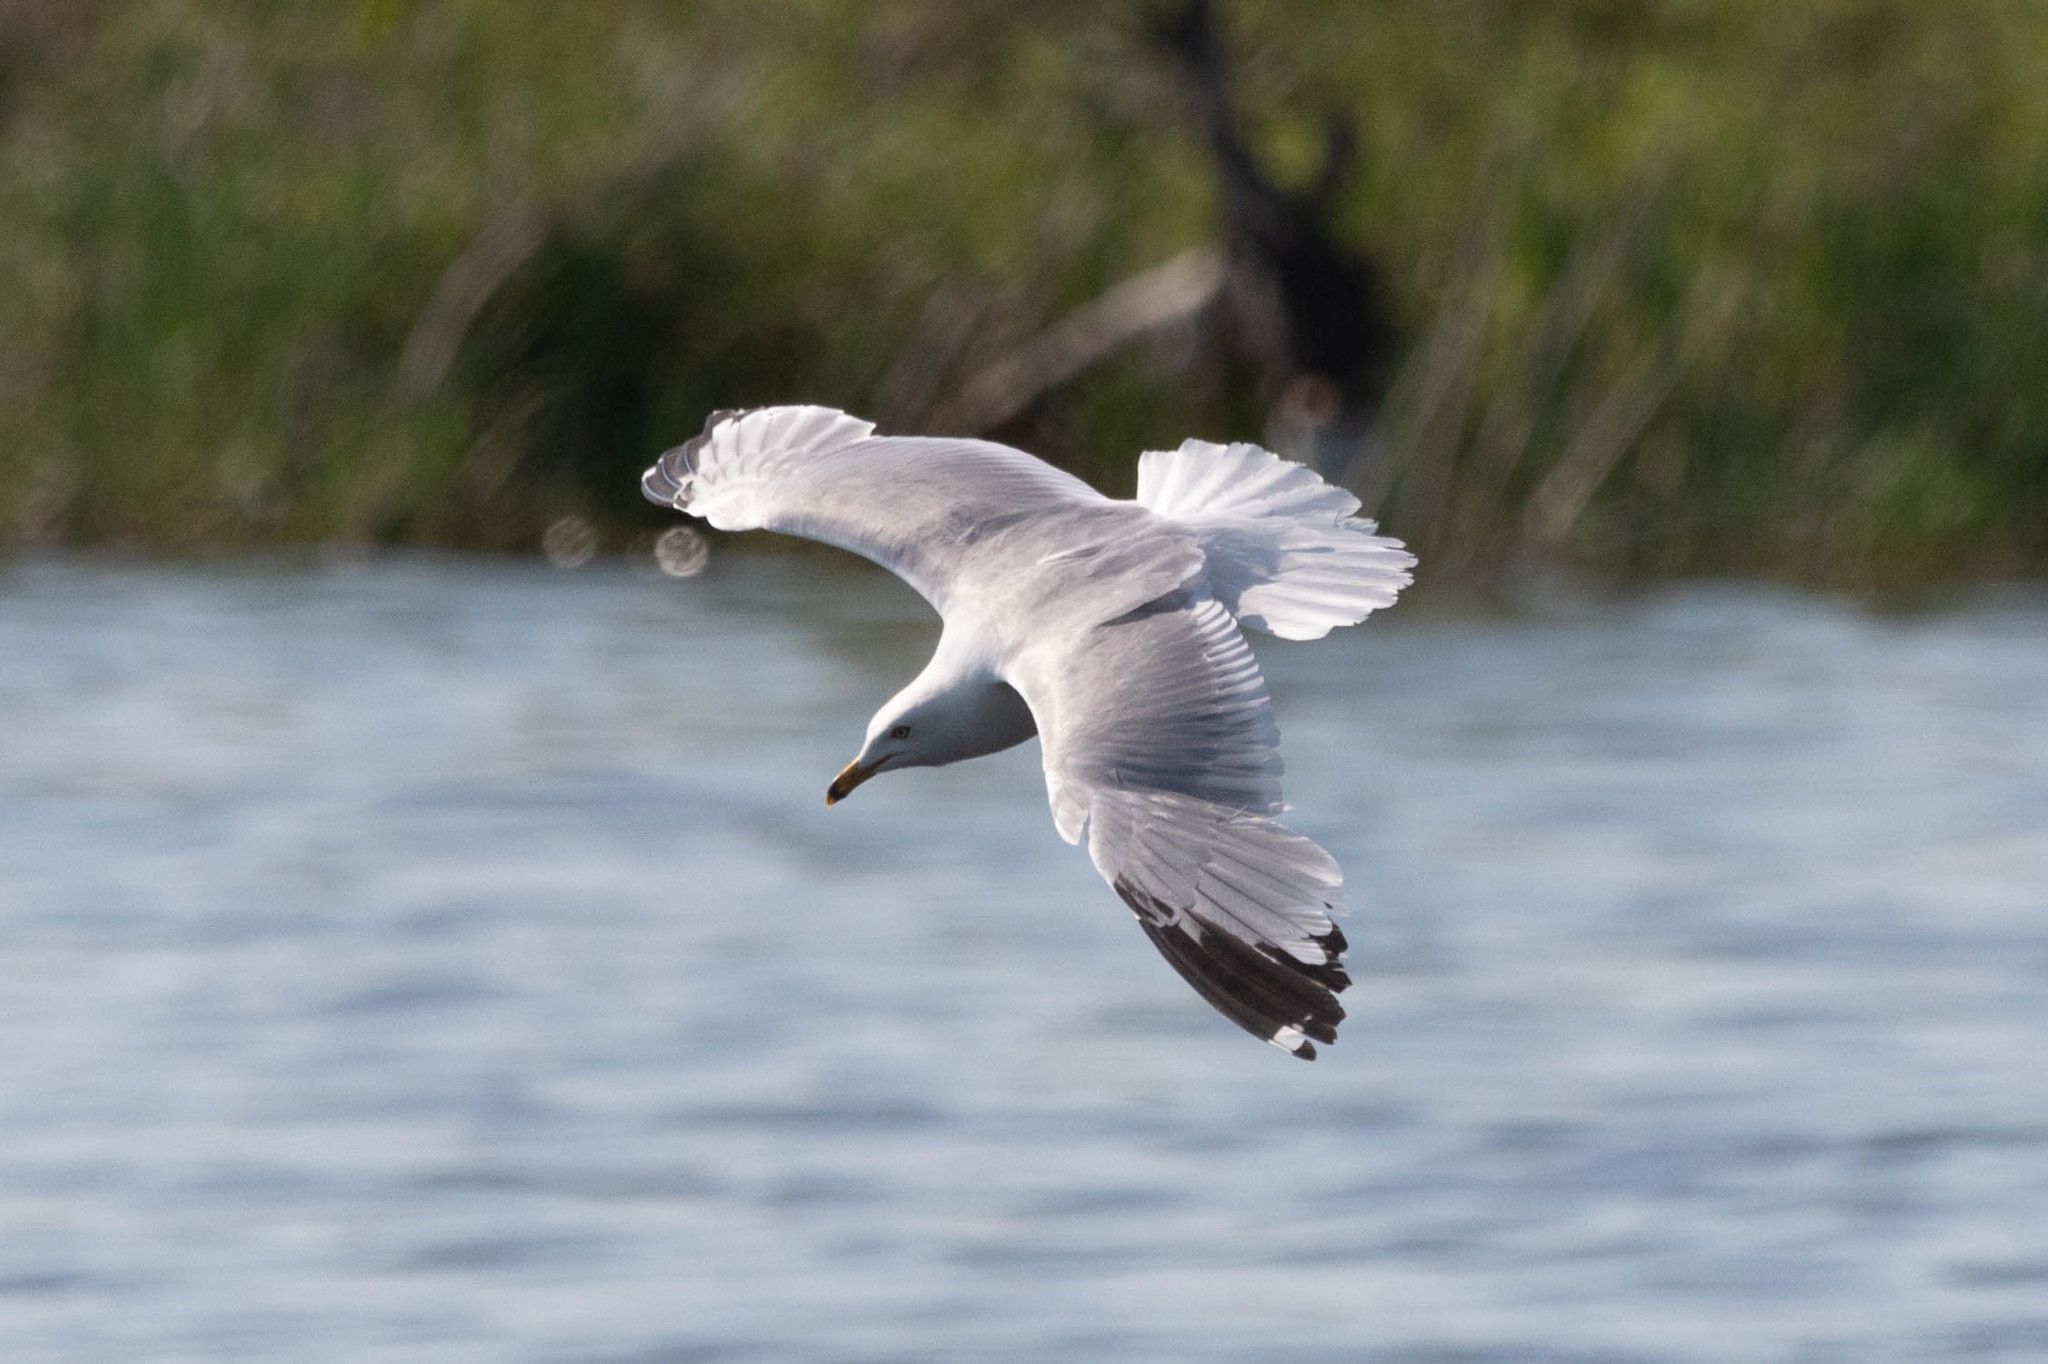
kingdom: Animalia
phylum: Chordata
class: Aves
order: Charadriiformes
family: Laridae
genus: Larus
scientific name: Larus delawarensis
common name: Ring-billed gull
